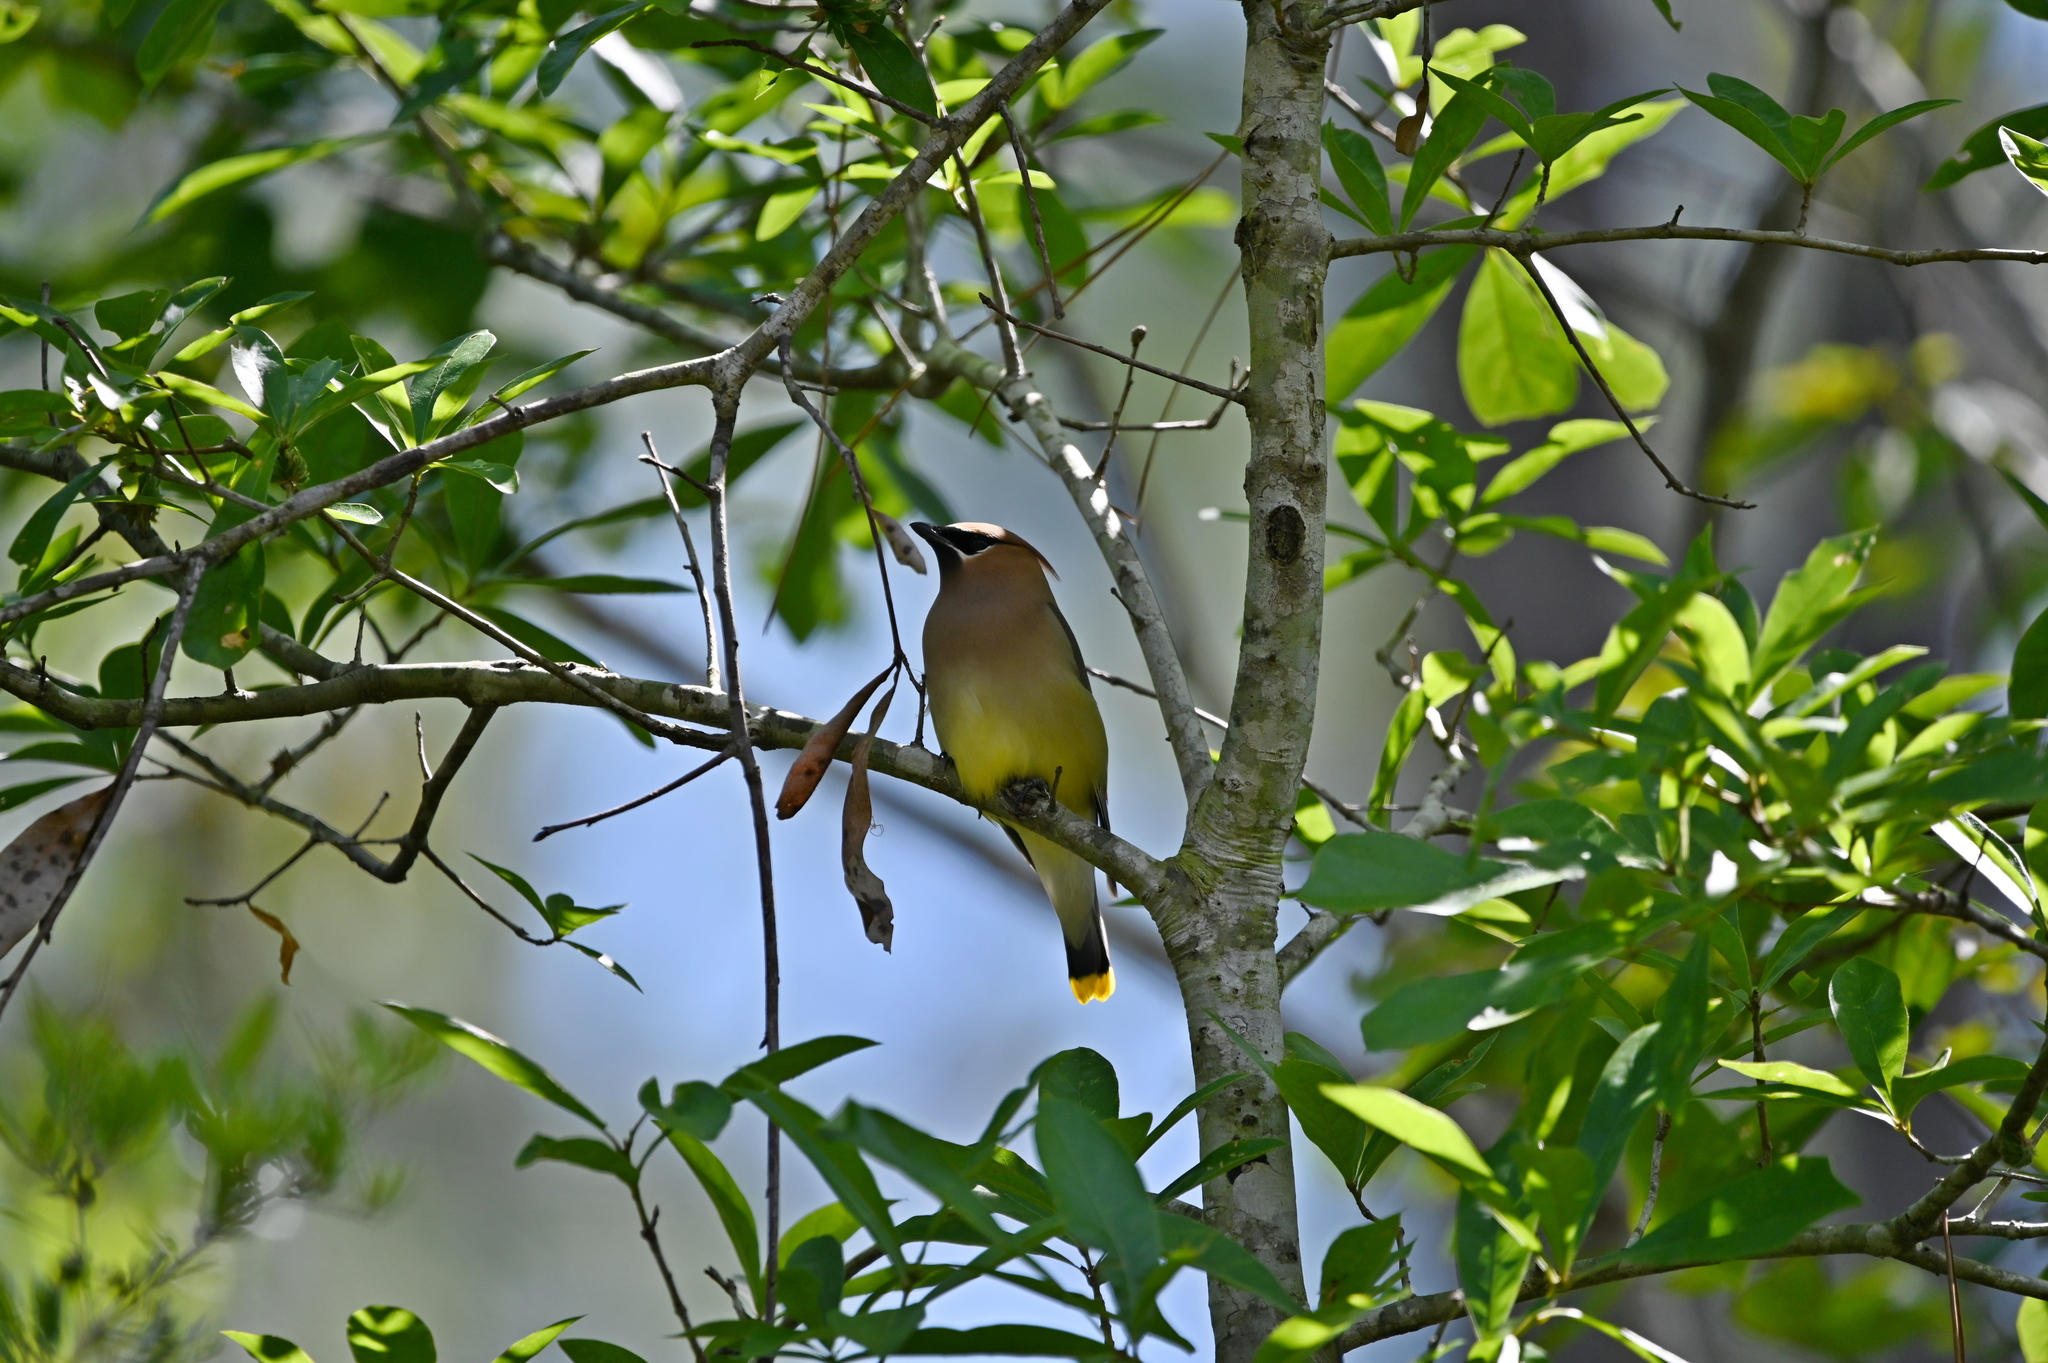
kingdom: Animalia
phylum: Chordata
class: Aves
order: Passeriformes
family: Bombycillidae
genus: Bombycilla
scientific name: Bombycilla cedrorum
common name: Cedar waxwing
